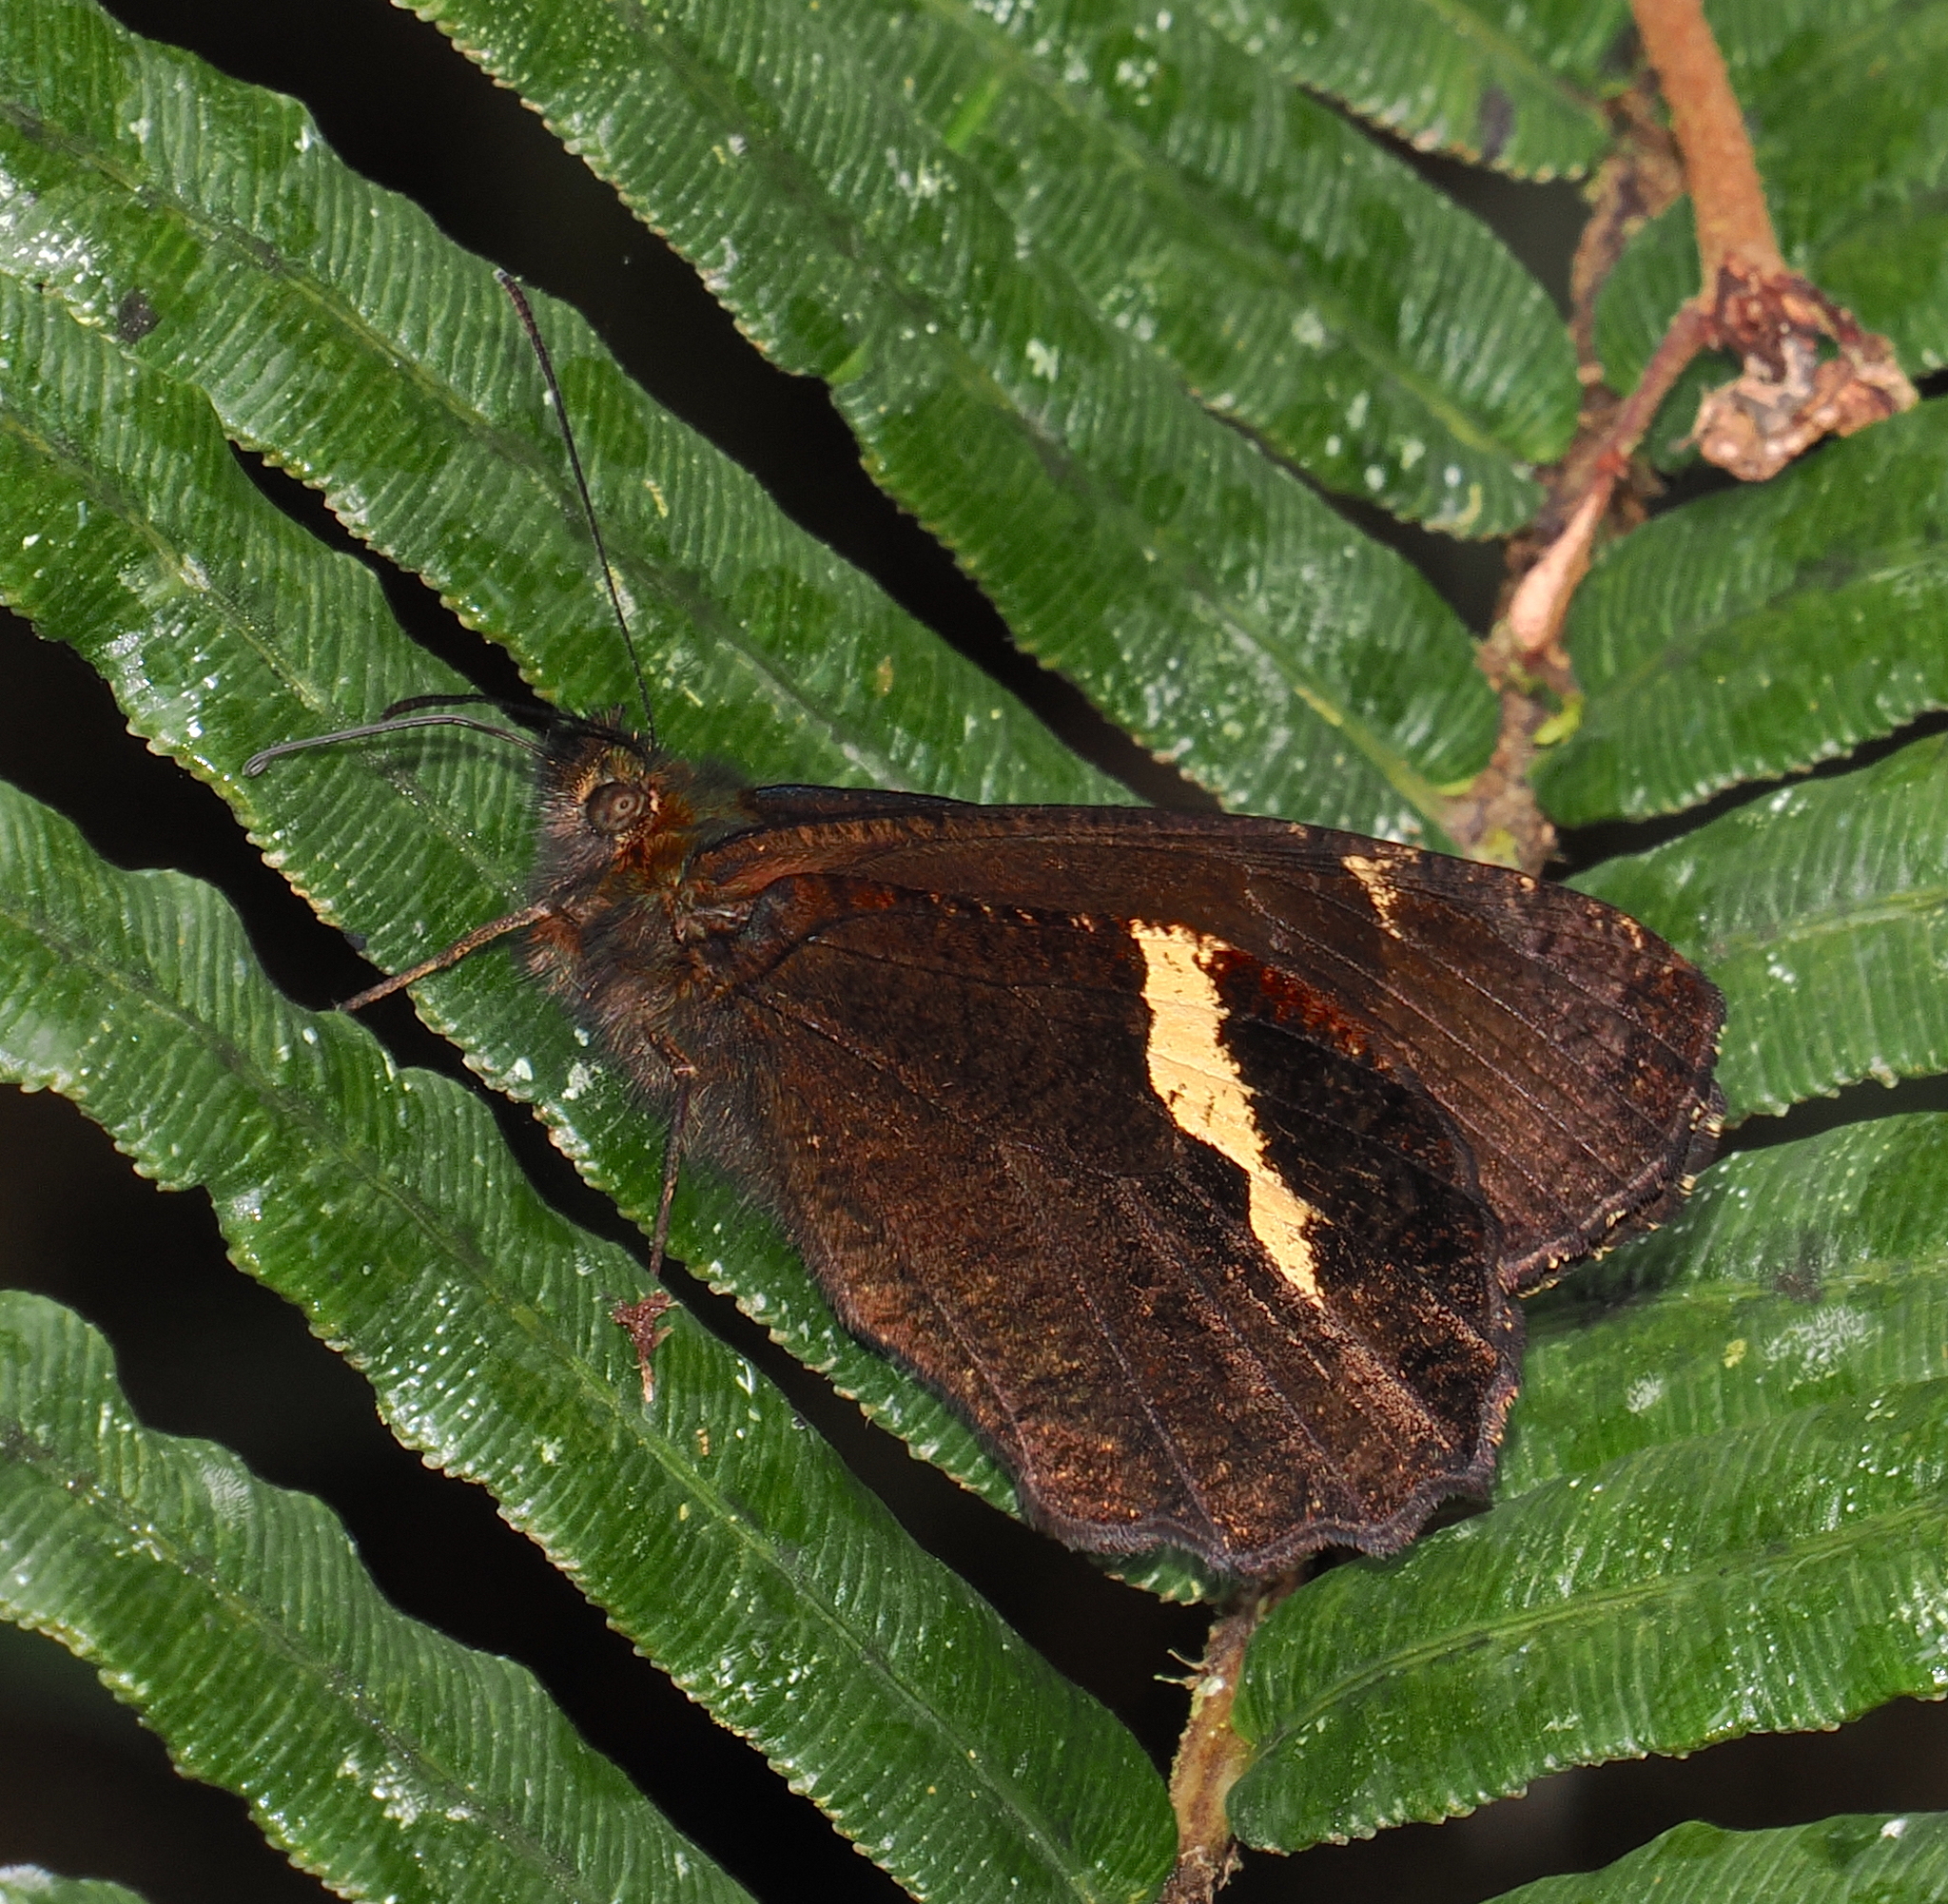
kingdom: Animalia
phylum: Arthropoda
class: Insecta
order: Lepidoptera
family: Nymphalidae
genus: Pedaliodes
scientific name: Pedaliodes porcia
